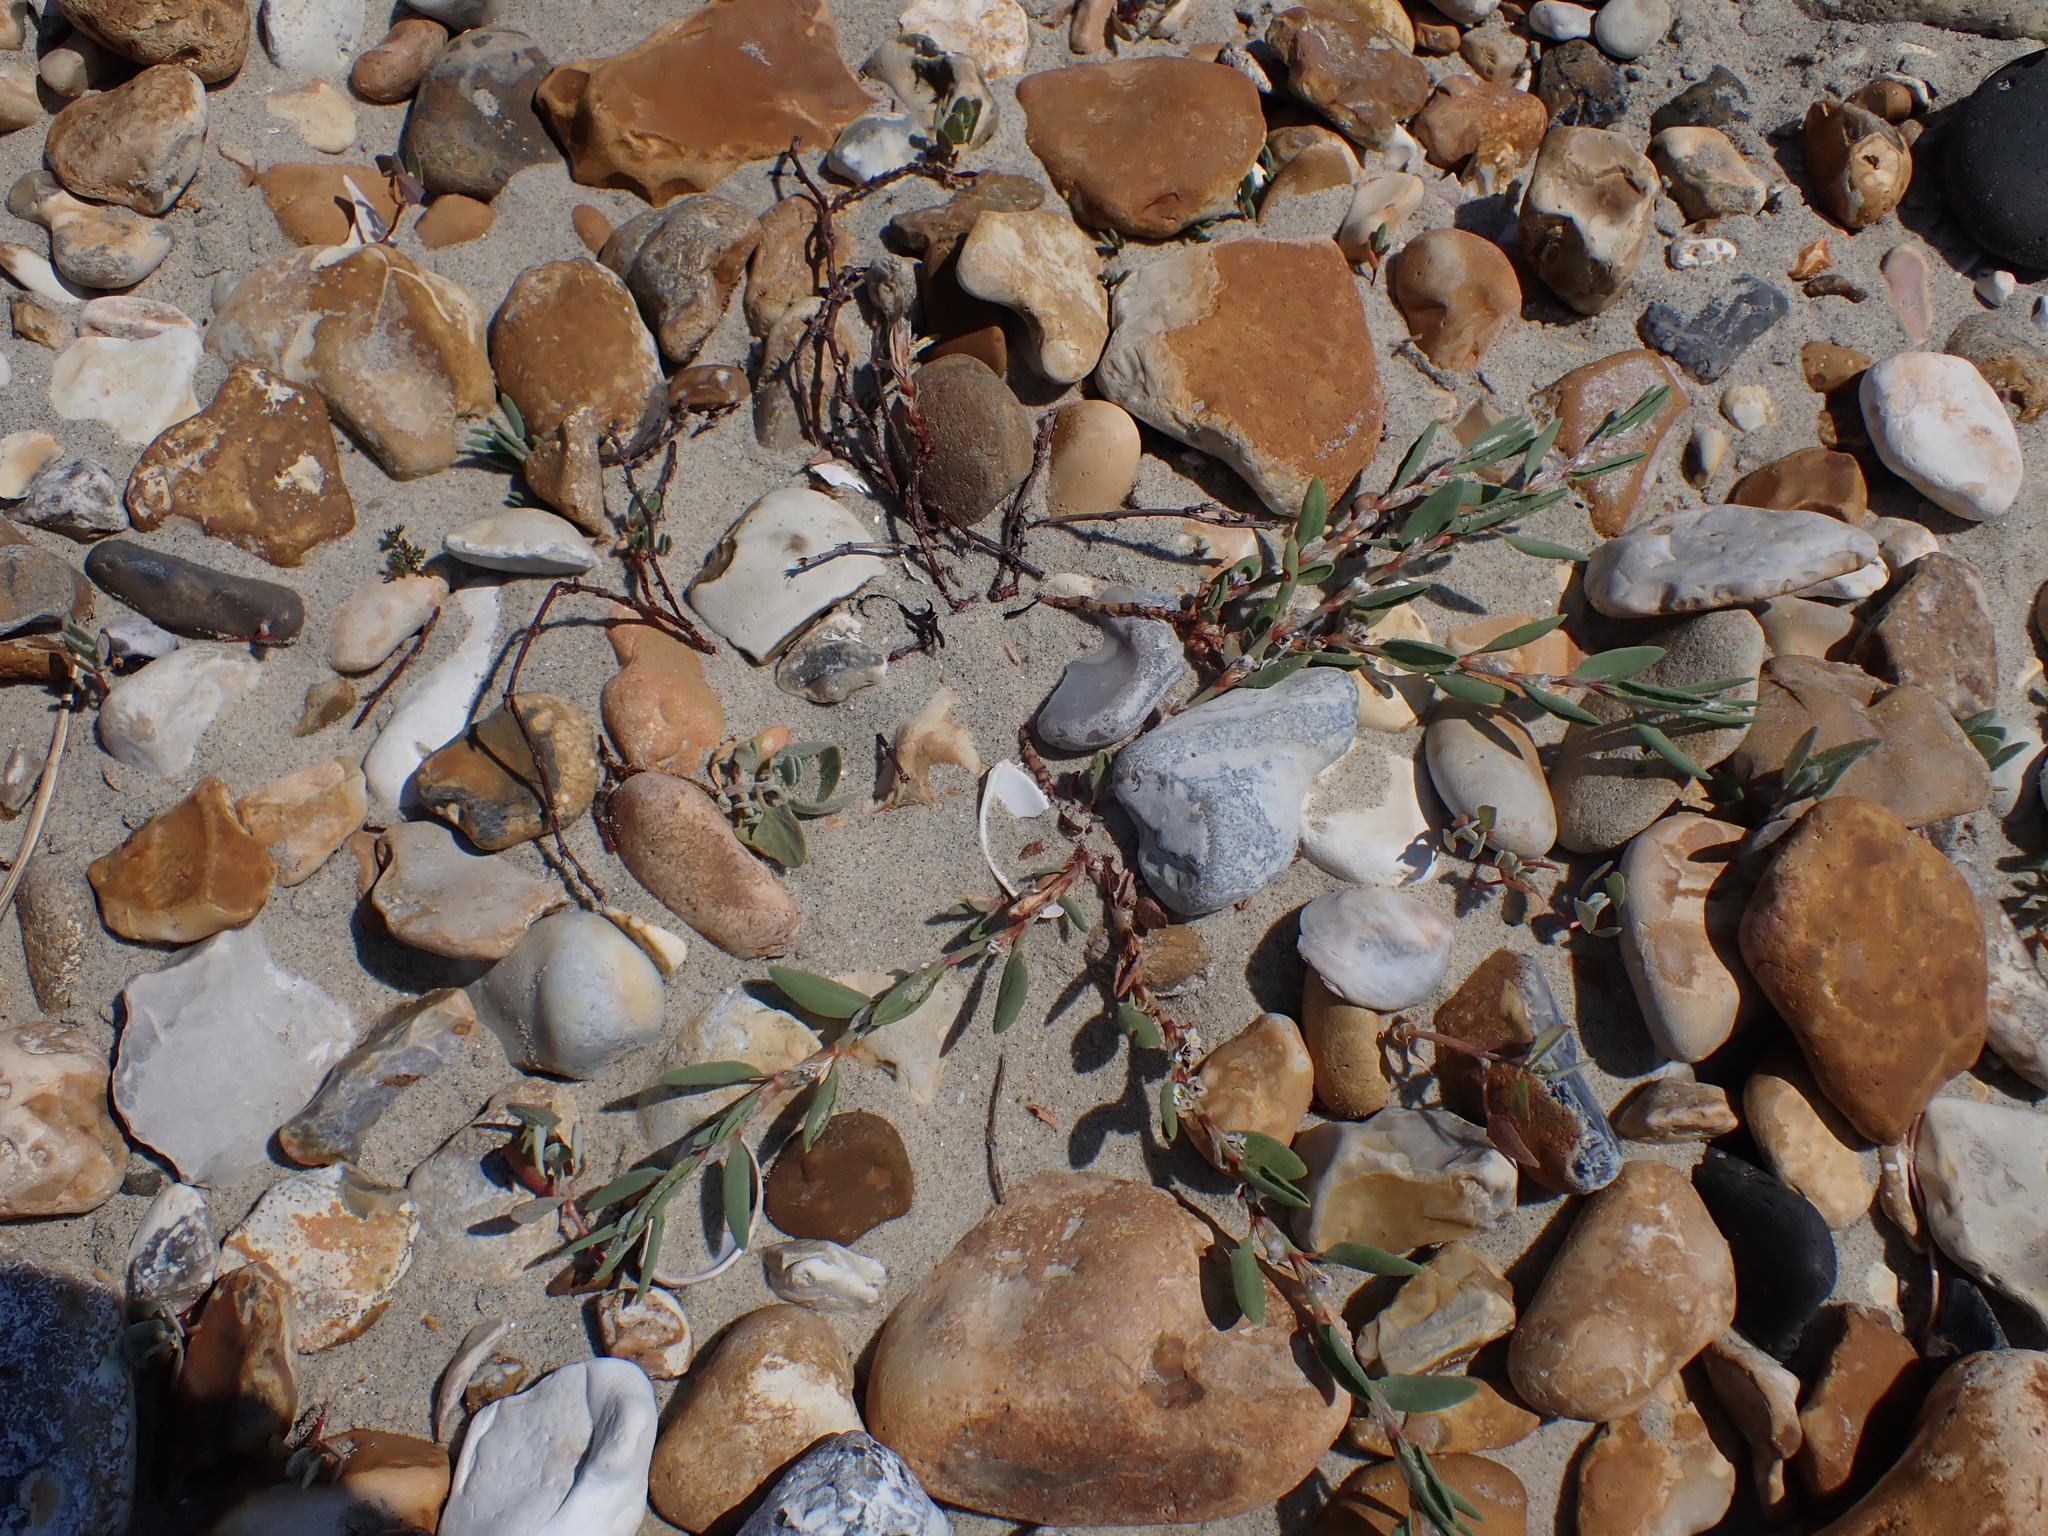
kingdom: Plantae
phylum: Tracheophyta
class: Magnoliopsida
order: Caryophyllales
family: Polygonaceae
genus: Polygonum
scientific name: Polygonum maritimum
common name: Sea knotgrass
